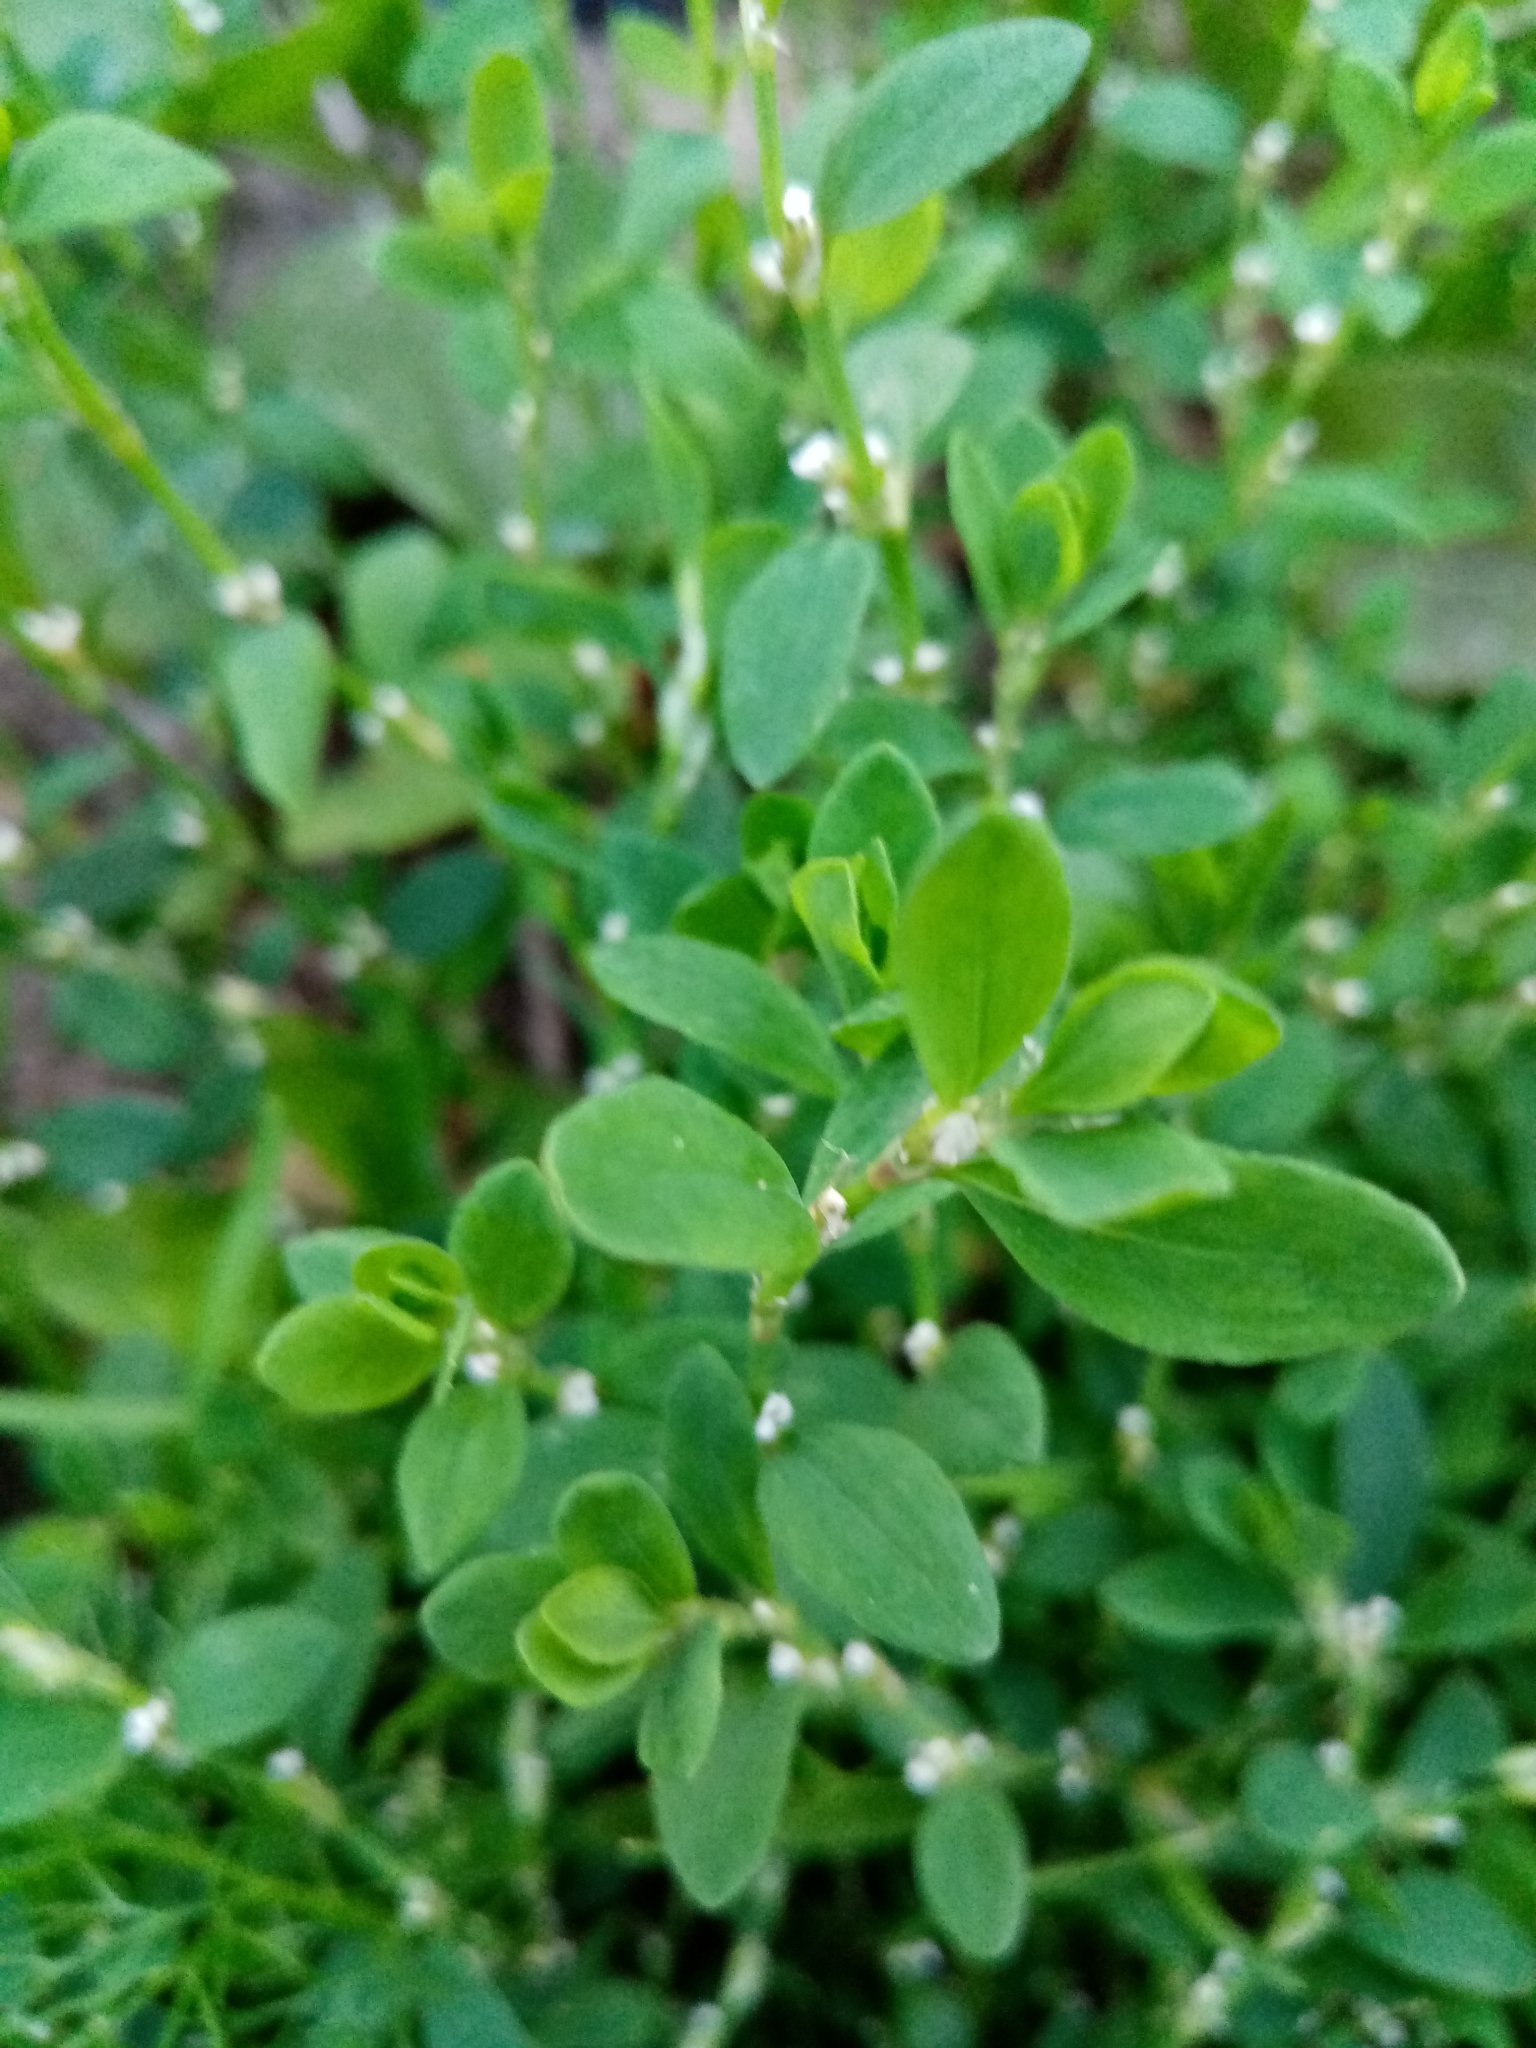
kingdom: Plantae
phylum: Tracheophyta
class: Magnoliopsida
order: Caryophyllales
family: Polygonaceae
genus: Polygonum
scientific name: Polygonum aviculare
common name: Prostrate knotweed
